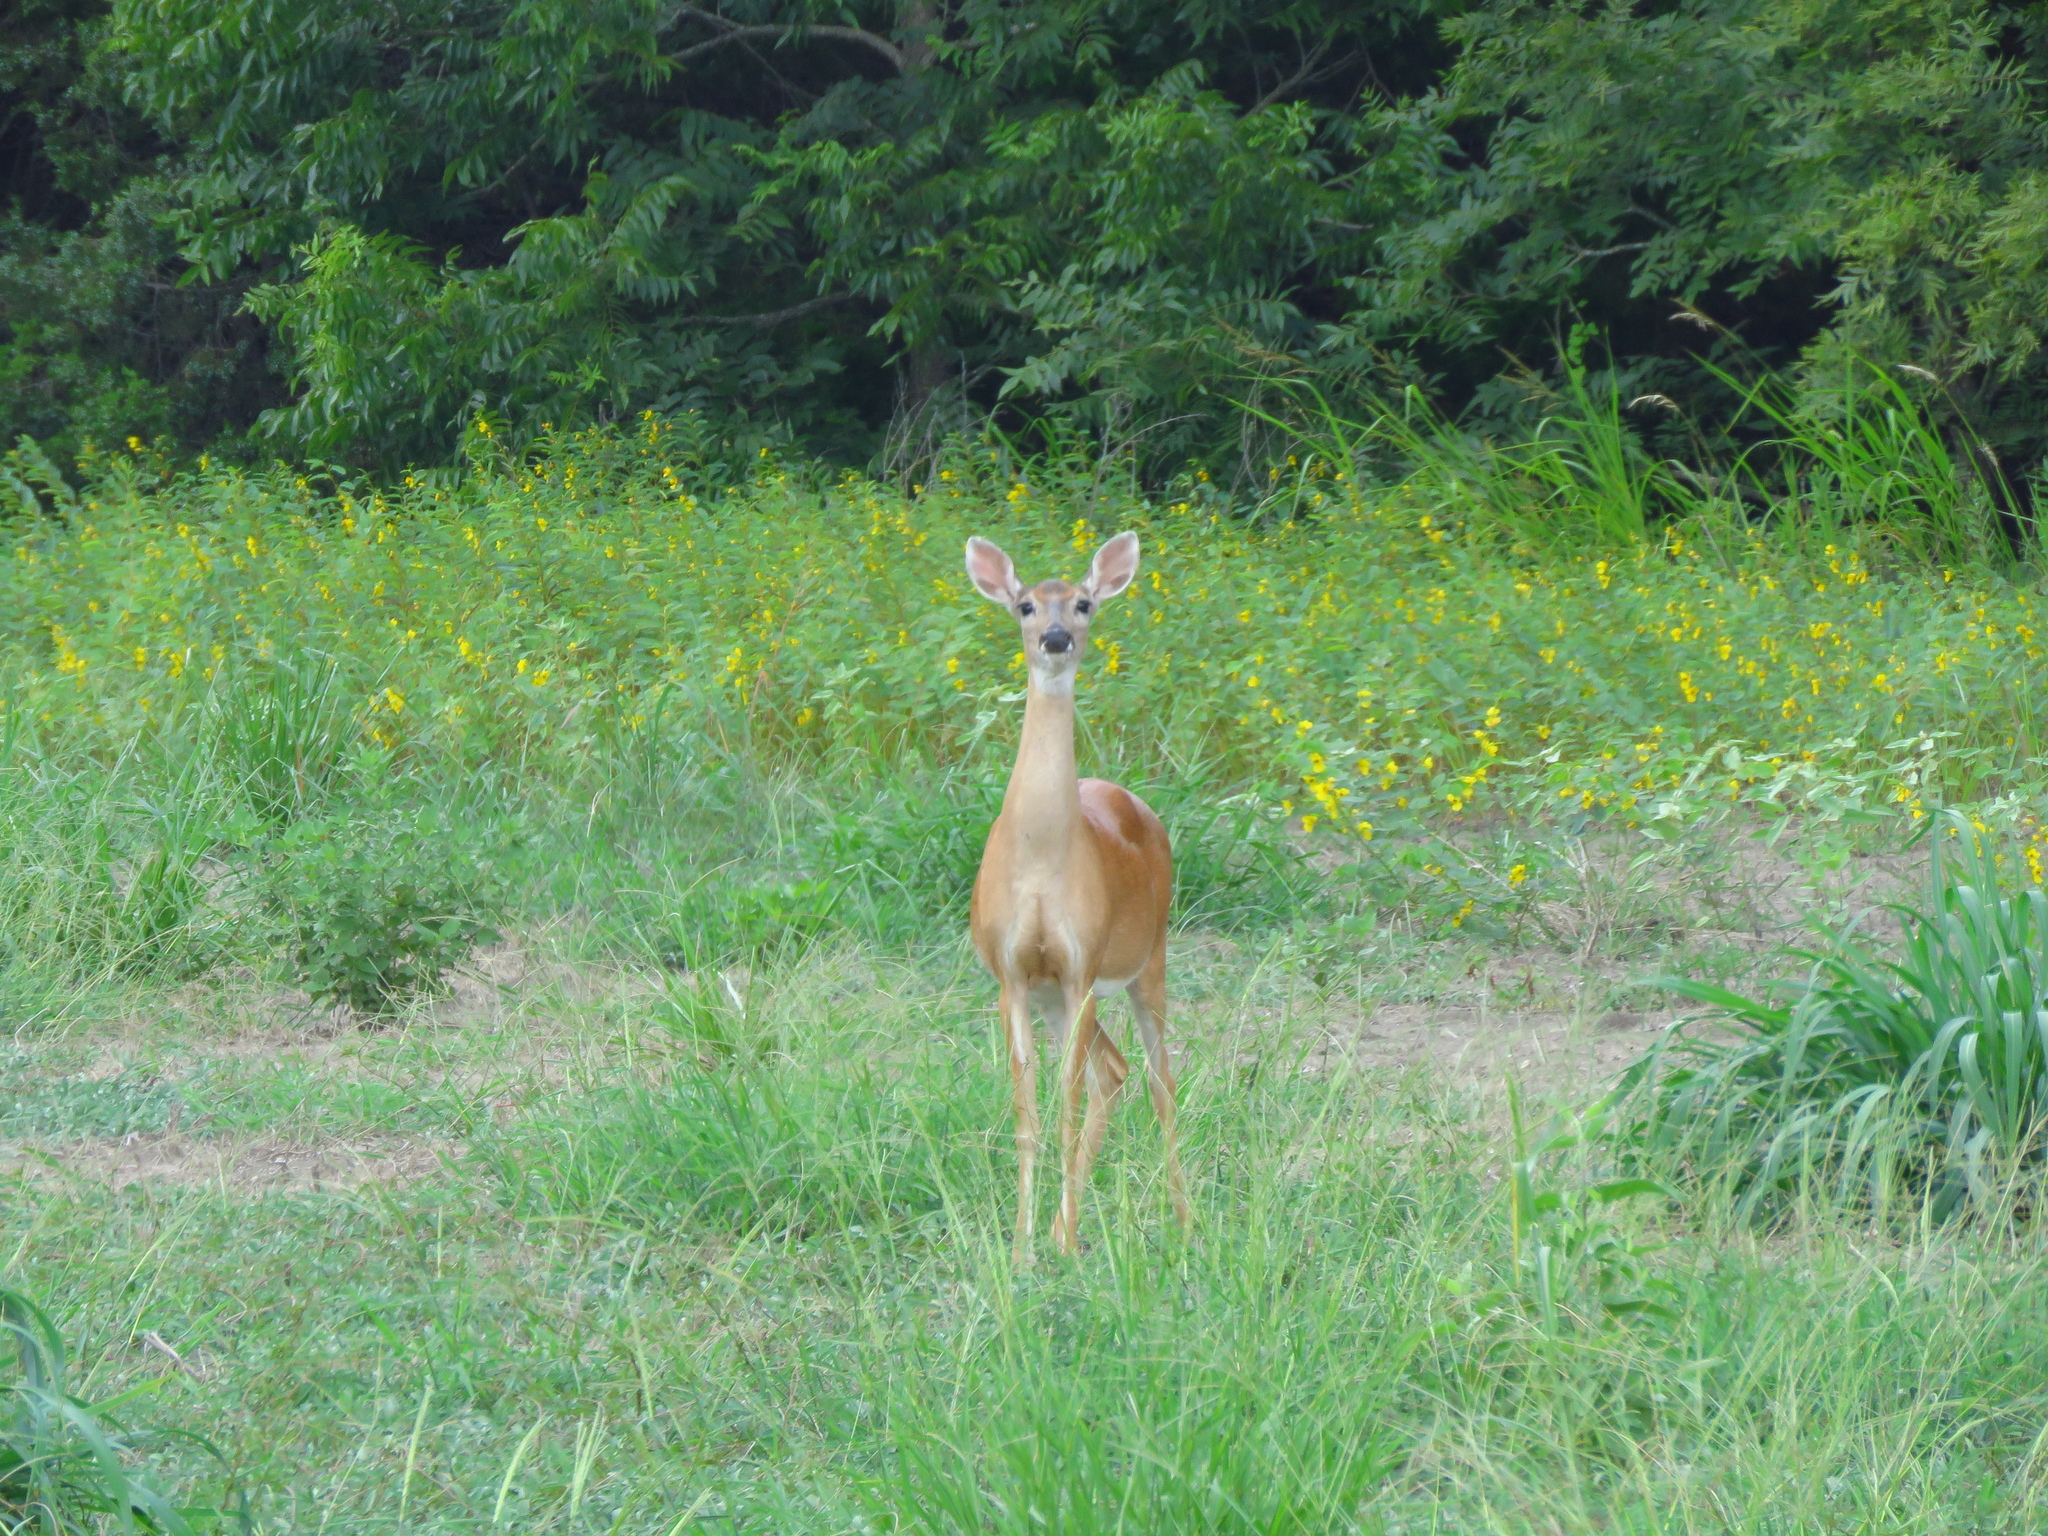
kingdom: Animalia
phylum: Chordata
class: Mammalia
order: Artiodactyla
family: Cervidae
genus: Odocoileus
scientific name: Odocoileus virginianus
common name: White-tailed deer
